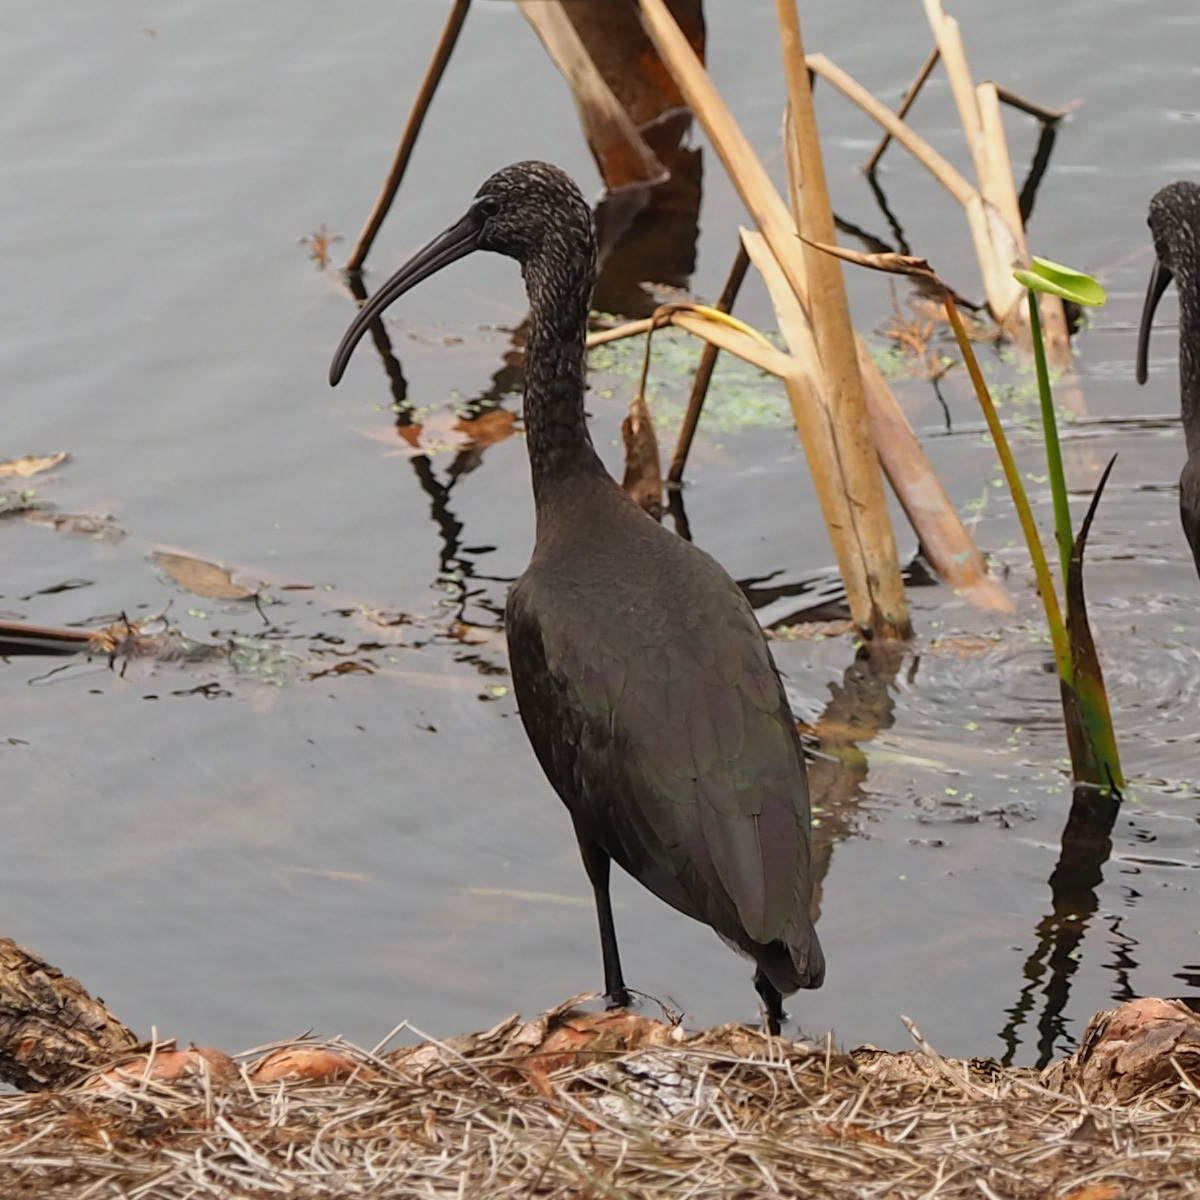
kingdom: Animalia
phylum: Chordata
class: Aves
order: Pelecaniformes
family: Threskiornithidae
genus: Plegadis
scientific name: Plegadis falcinellus
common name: Glossy ibis
